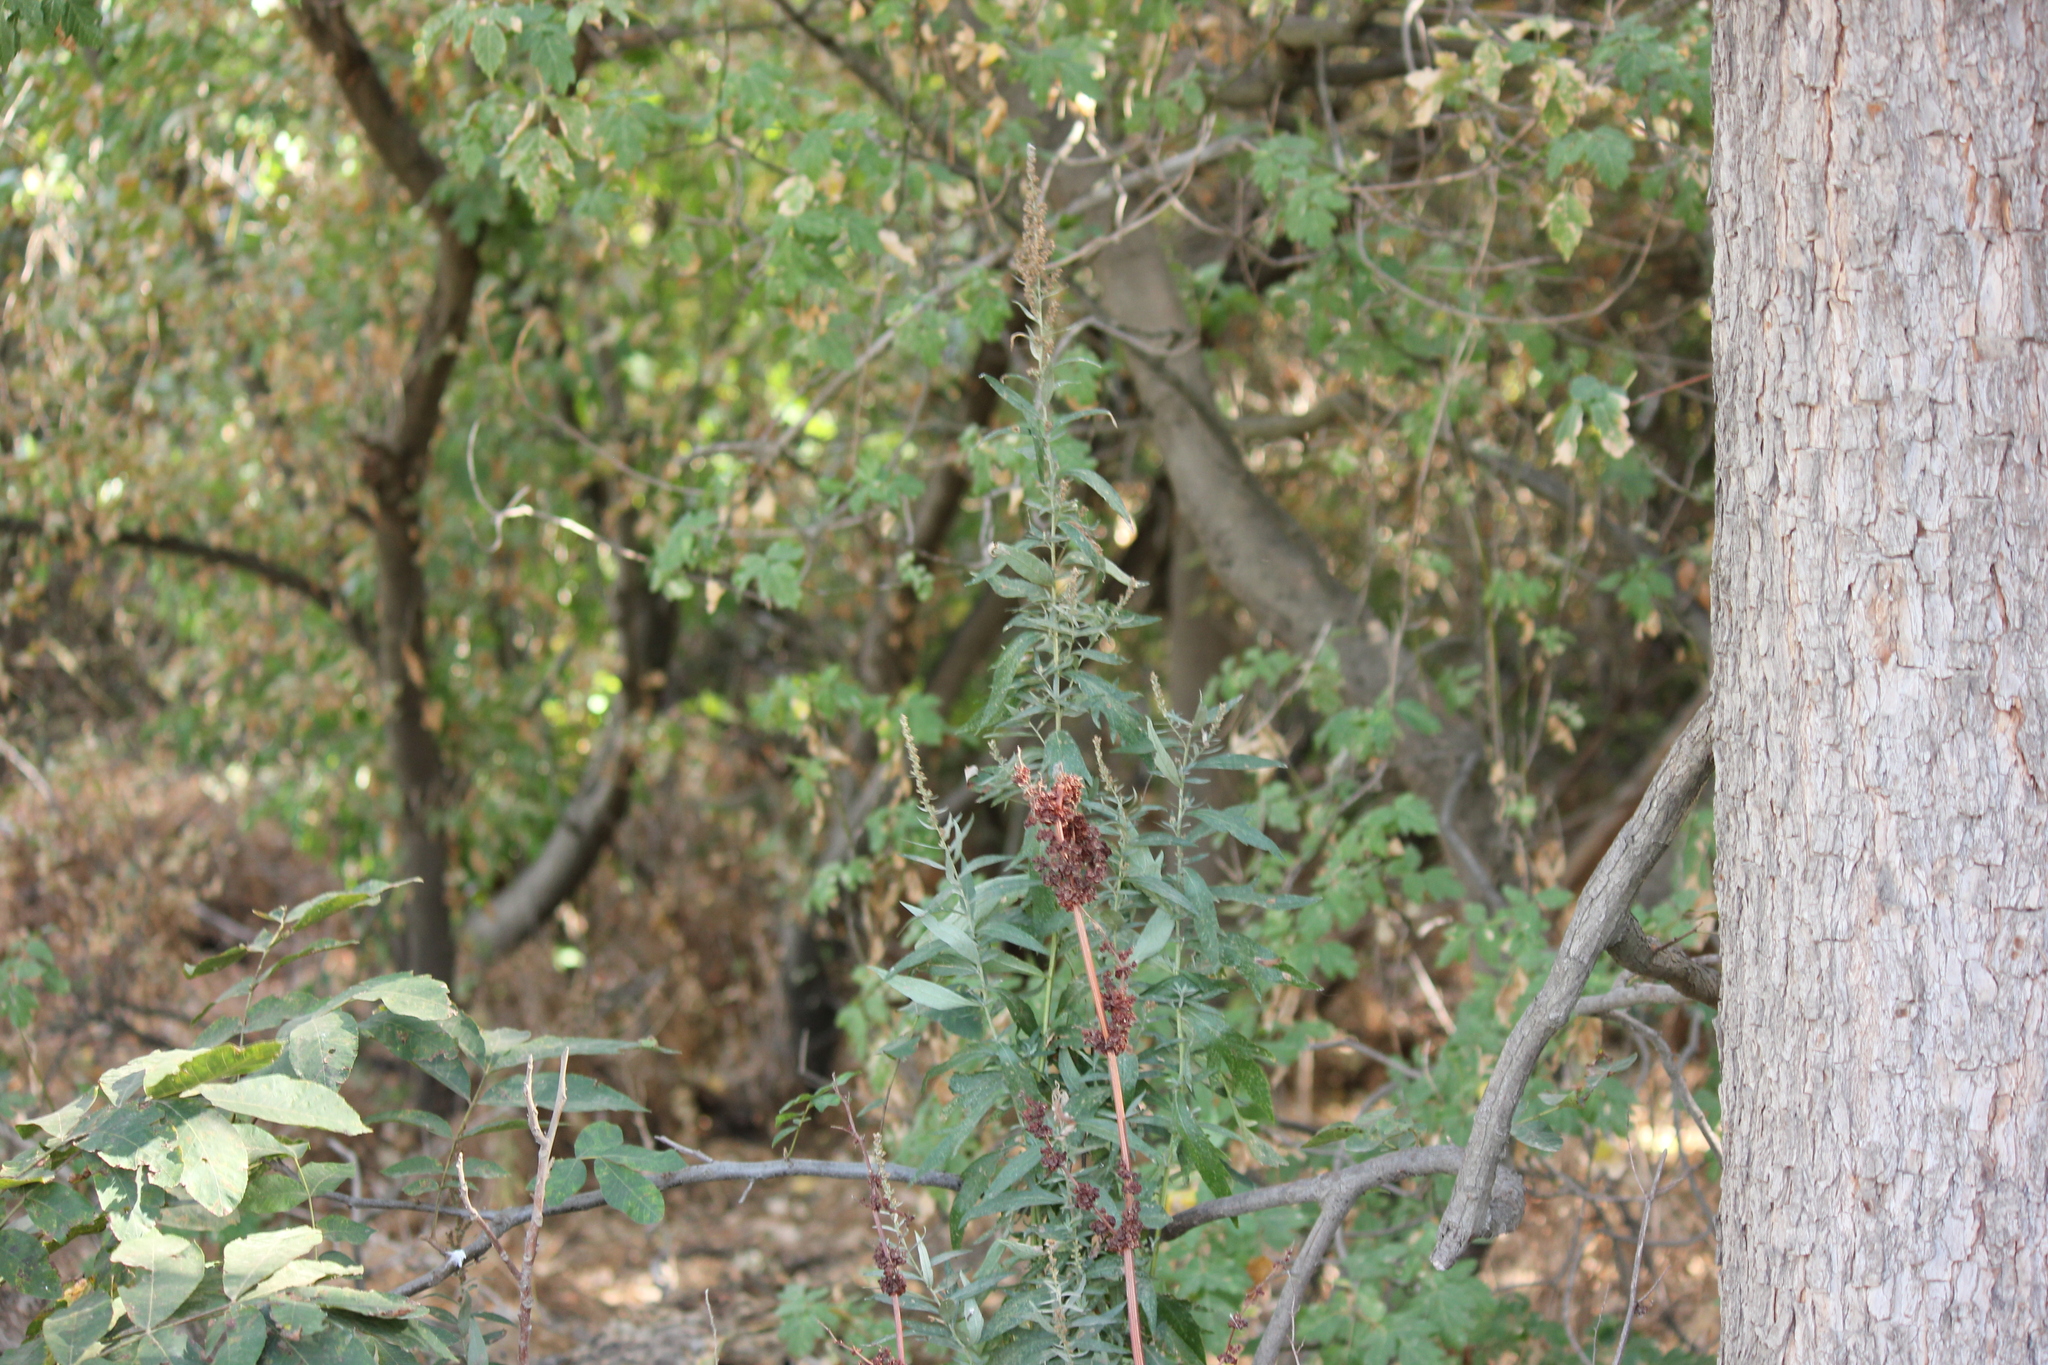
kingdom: Plantae
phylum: Tracheophyta
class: Magnoliopsida
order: Asterales
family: Asteraceae
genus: Artemisia
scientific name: Artemisia douglasiana
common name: Northwest mugwort
